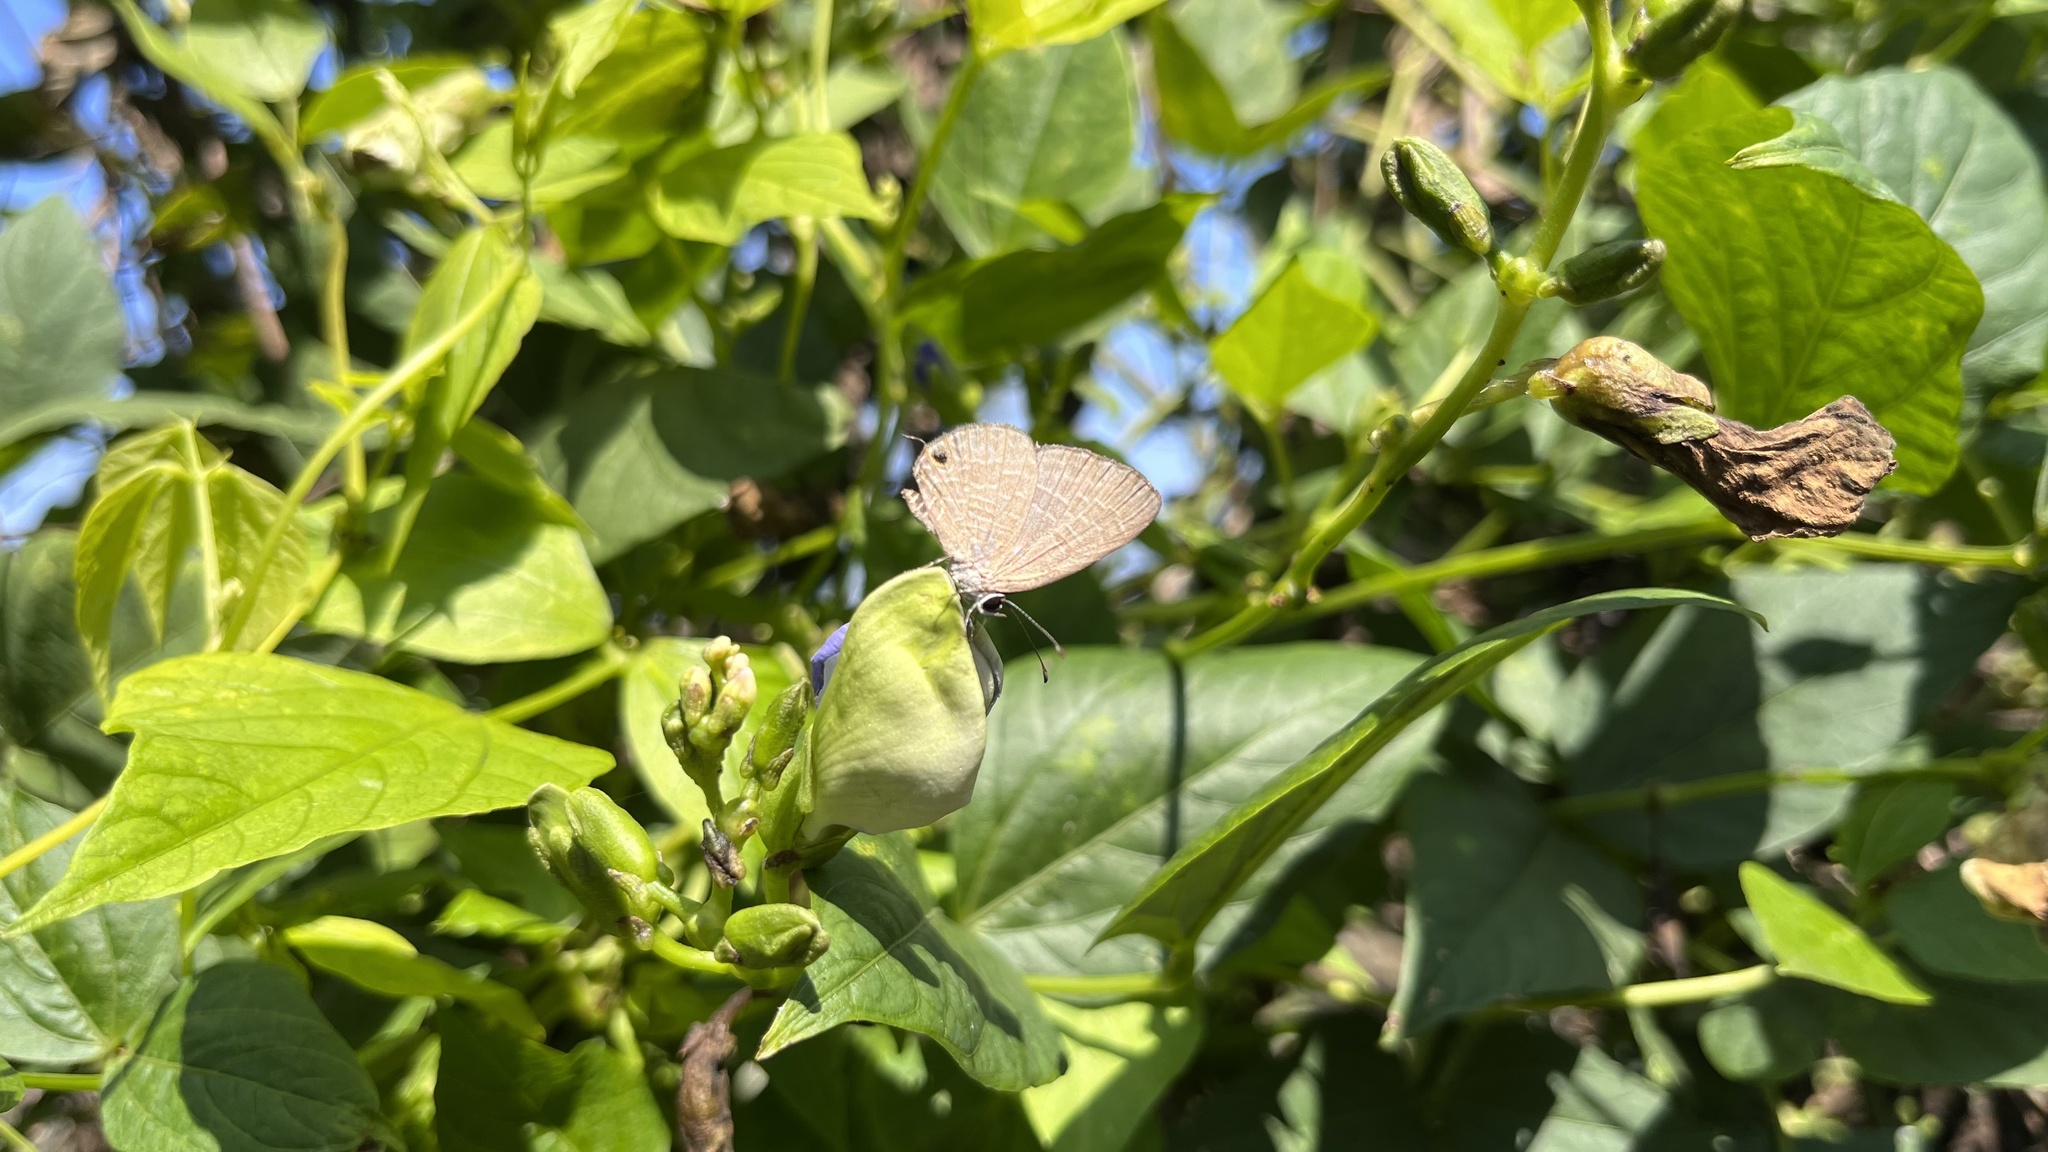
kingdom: Animalia
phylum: Arthropoda
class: Insecta
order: Lepidoptera
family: Lycaenidae
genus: Jamides
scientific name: Jamides bochus
